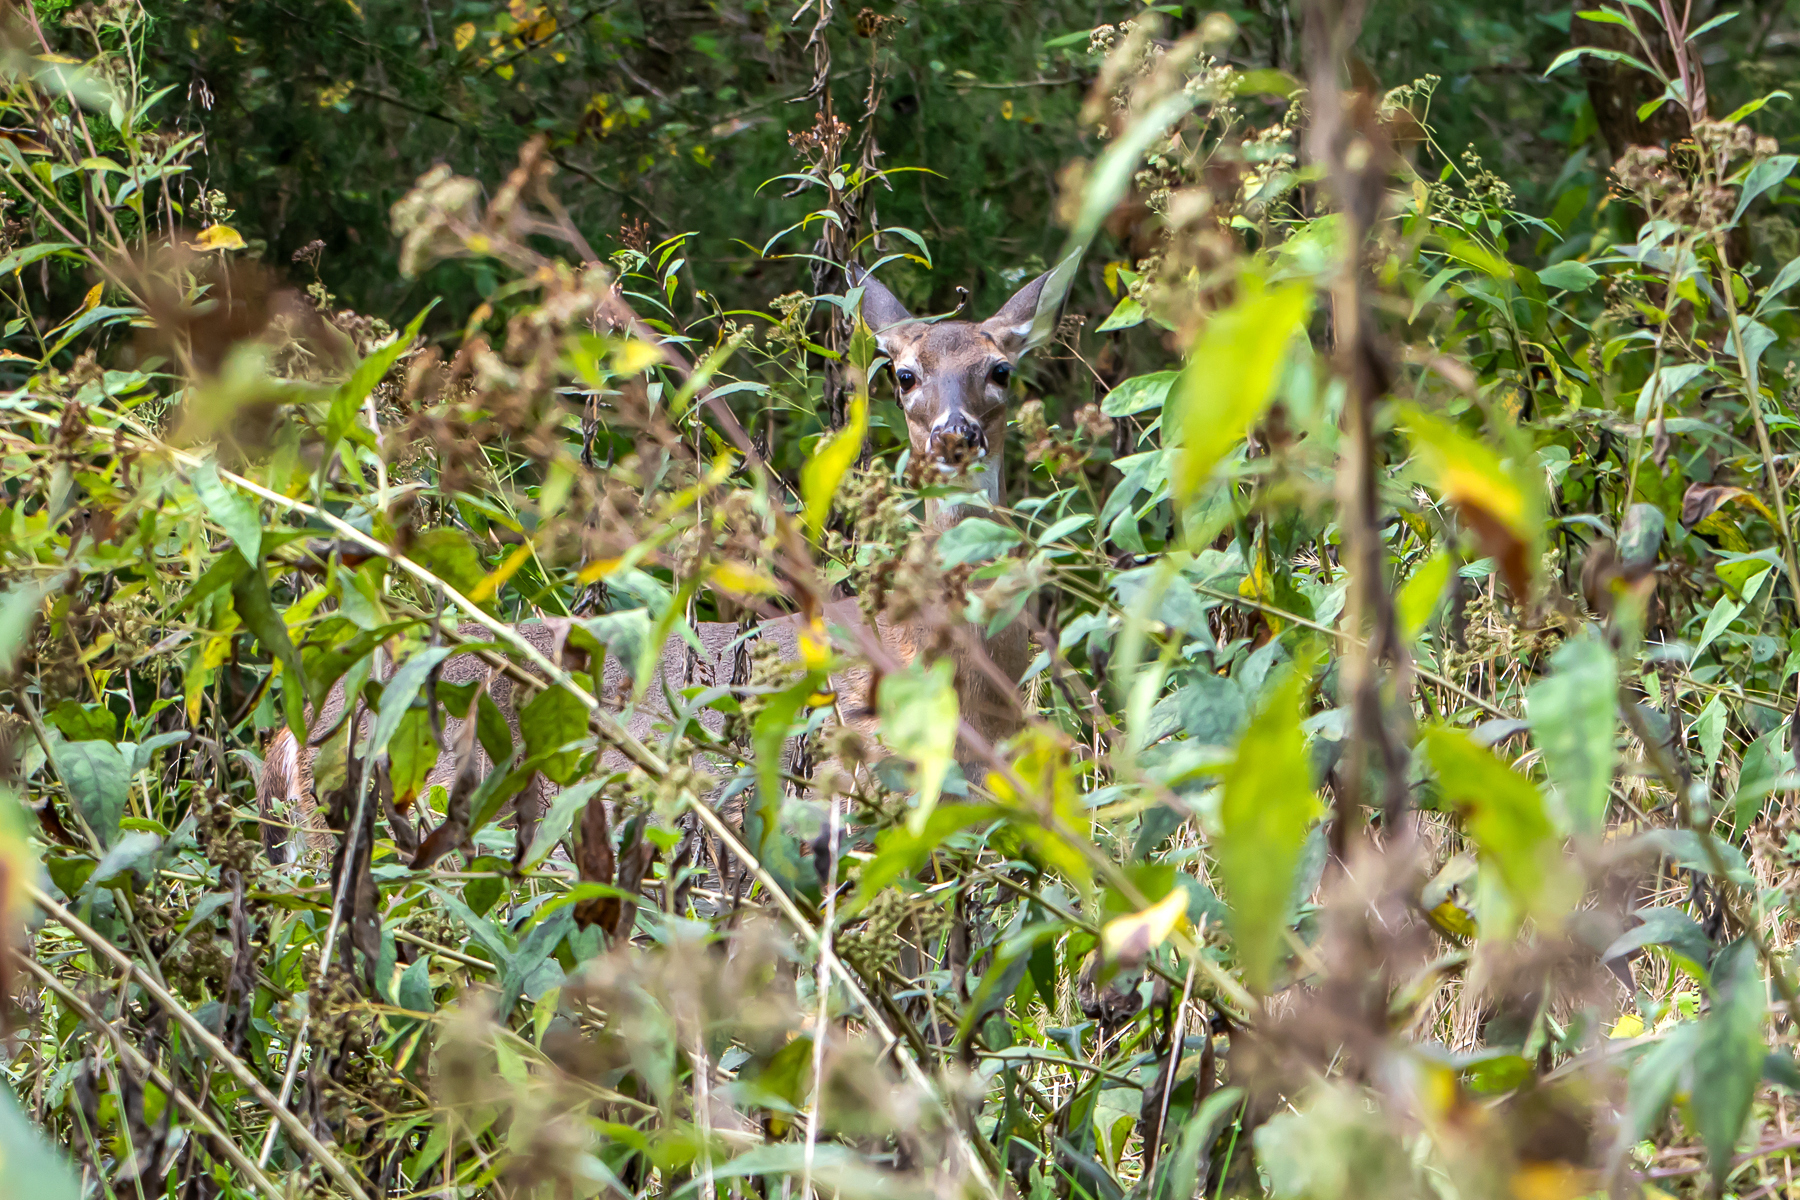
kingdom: Animalia
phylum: Chordata
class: Mammalia
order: Artiodactyla
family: Cervidae
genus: Odocoileus
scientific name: Odocoileus virginianus
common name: White-tailed deer
